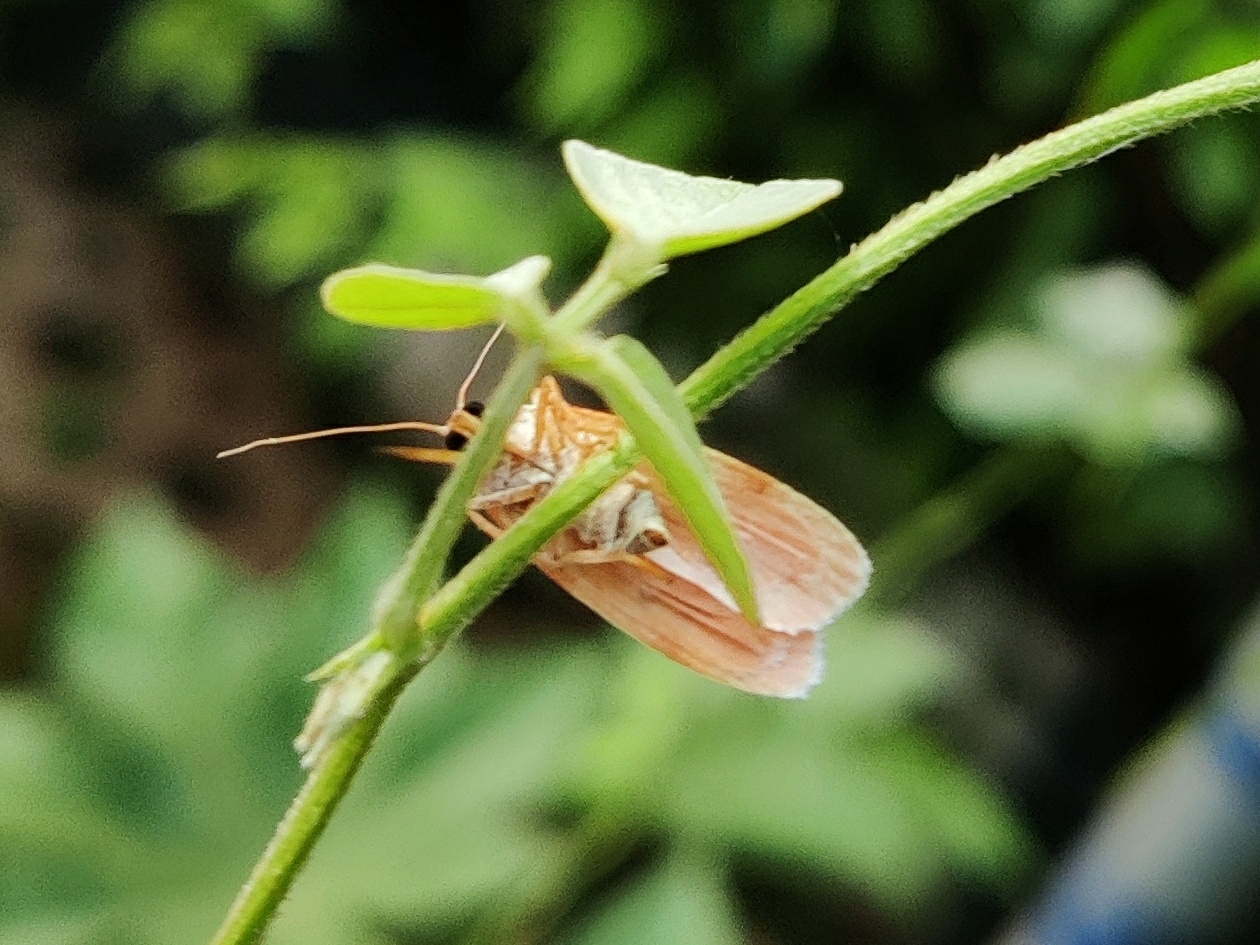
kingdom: Animalia
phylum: Arthropoda
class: Insecta
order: Lepidoptera
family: Erebidae
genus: Cyana
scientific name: Cyana peregrina
